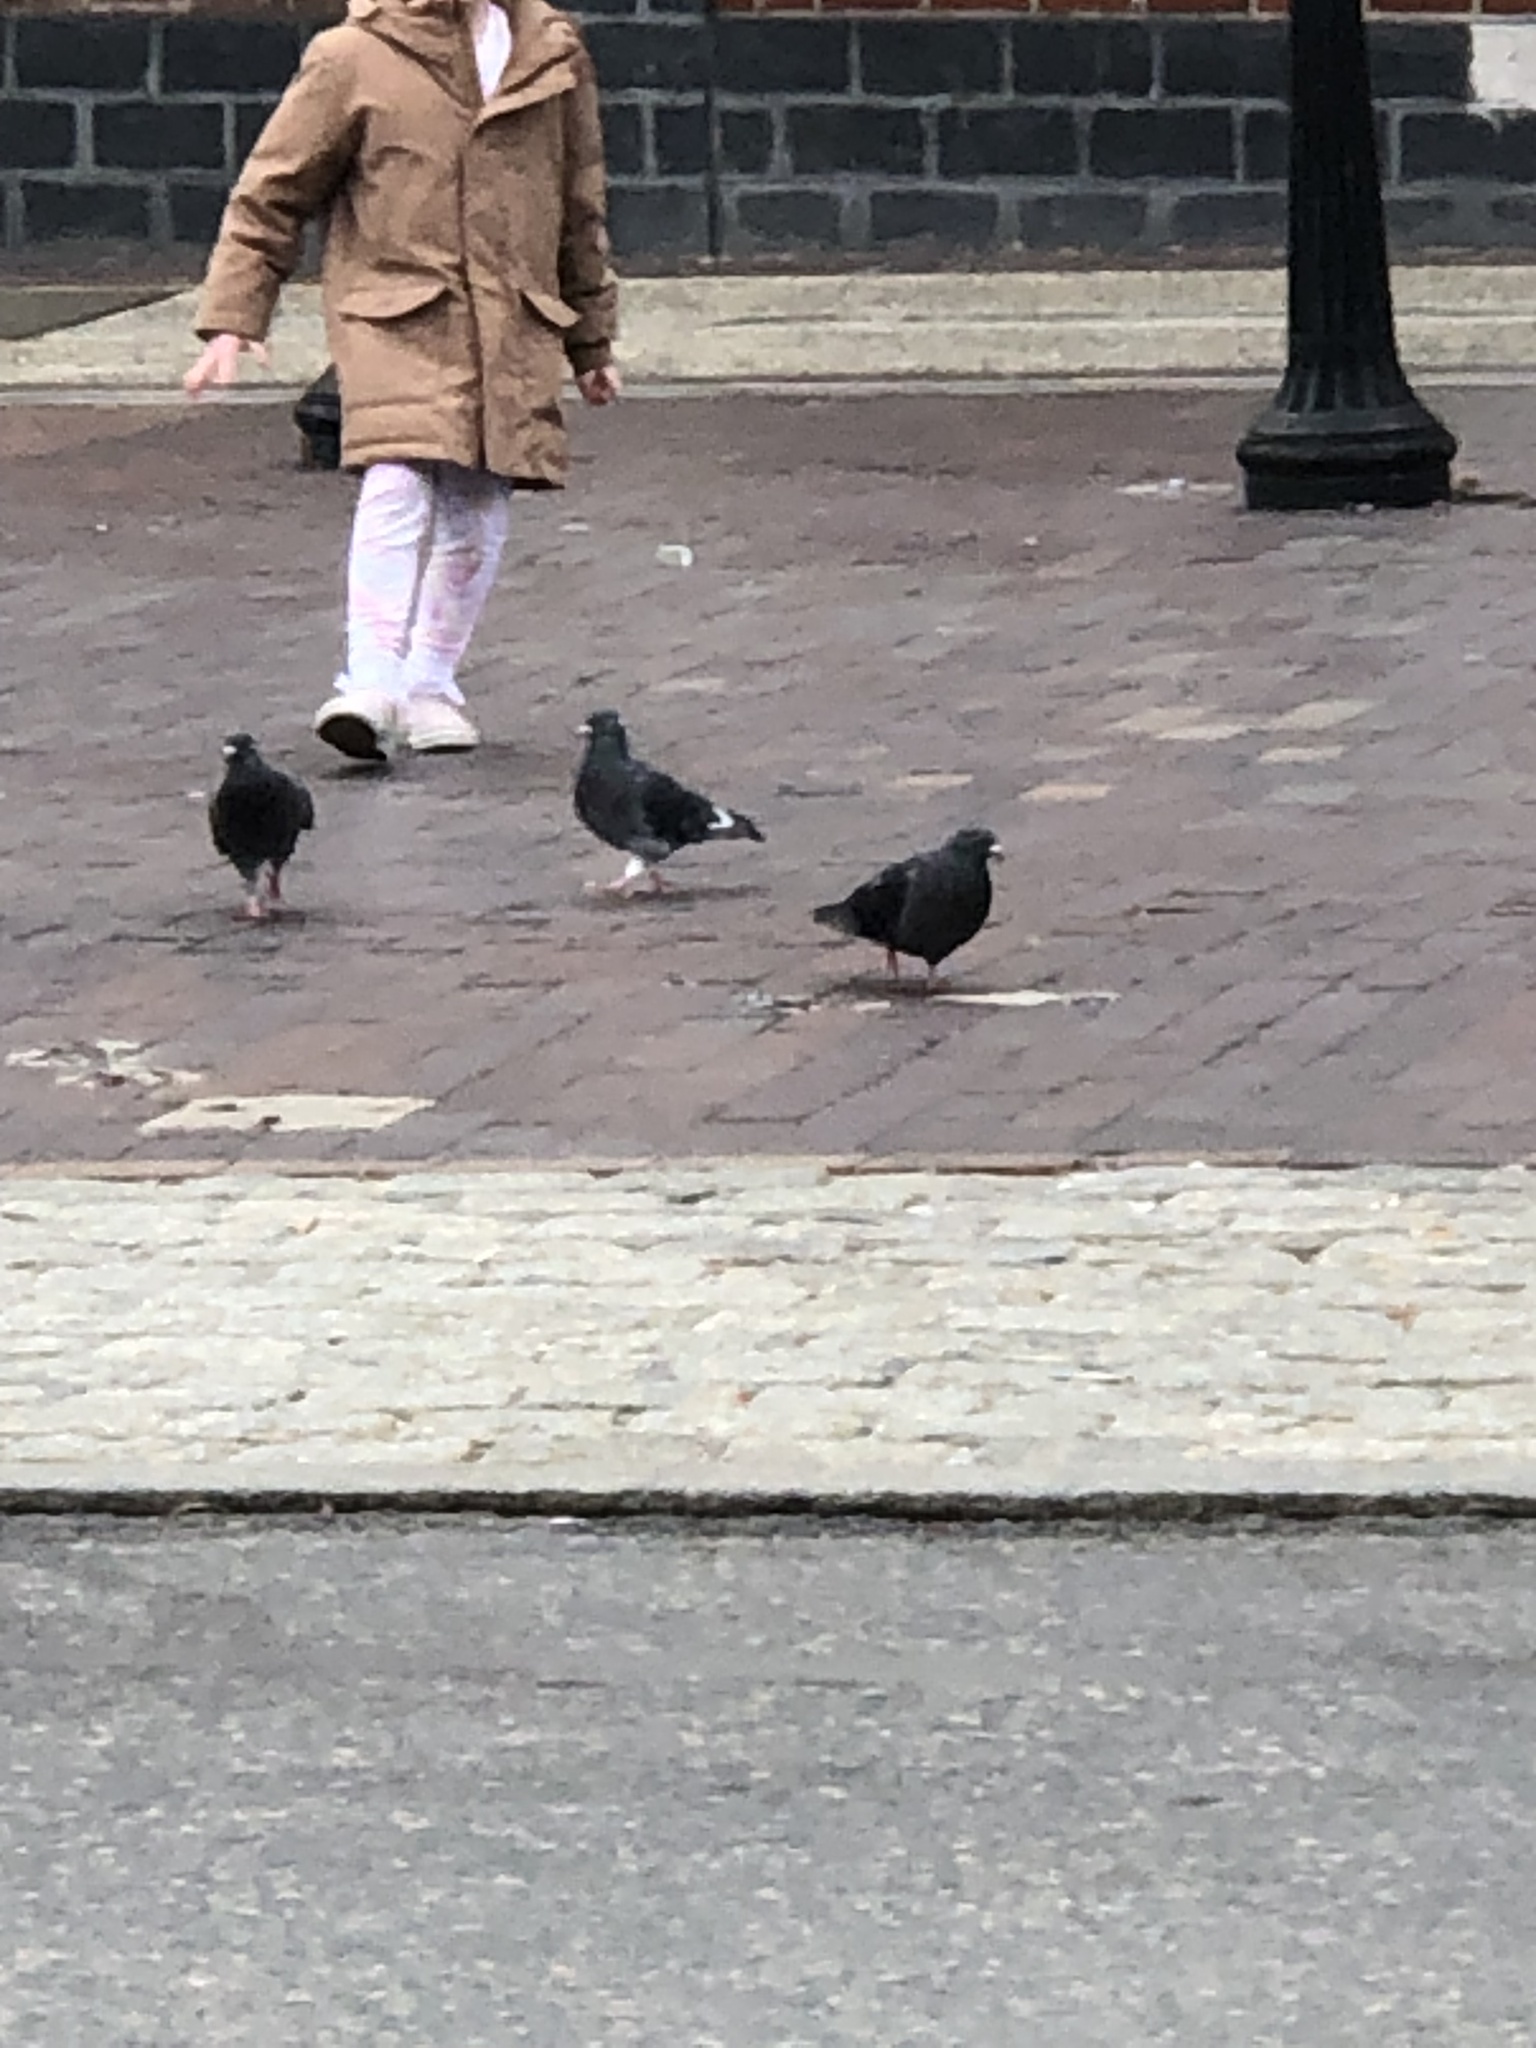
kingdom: Animalia
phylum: Chordata
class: Aves
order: Columbiformes
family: Columbidae
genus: Columba
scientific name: Columba livia
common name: Rock pigeon
